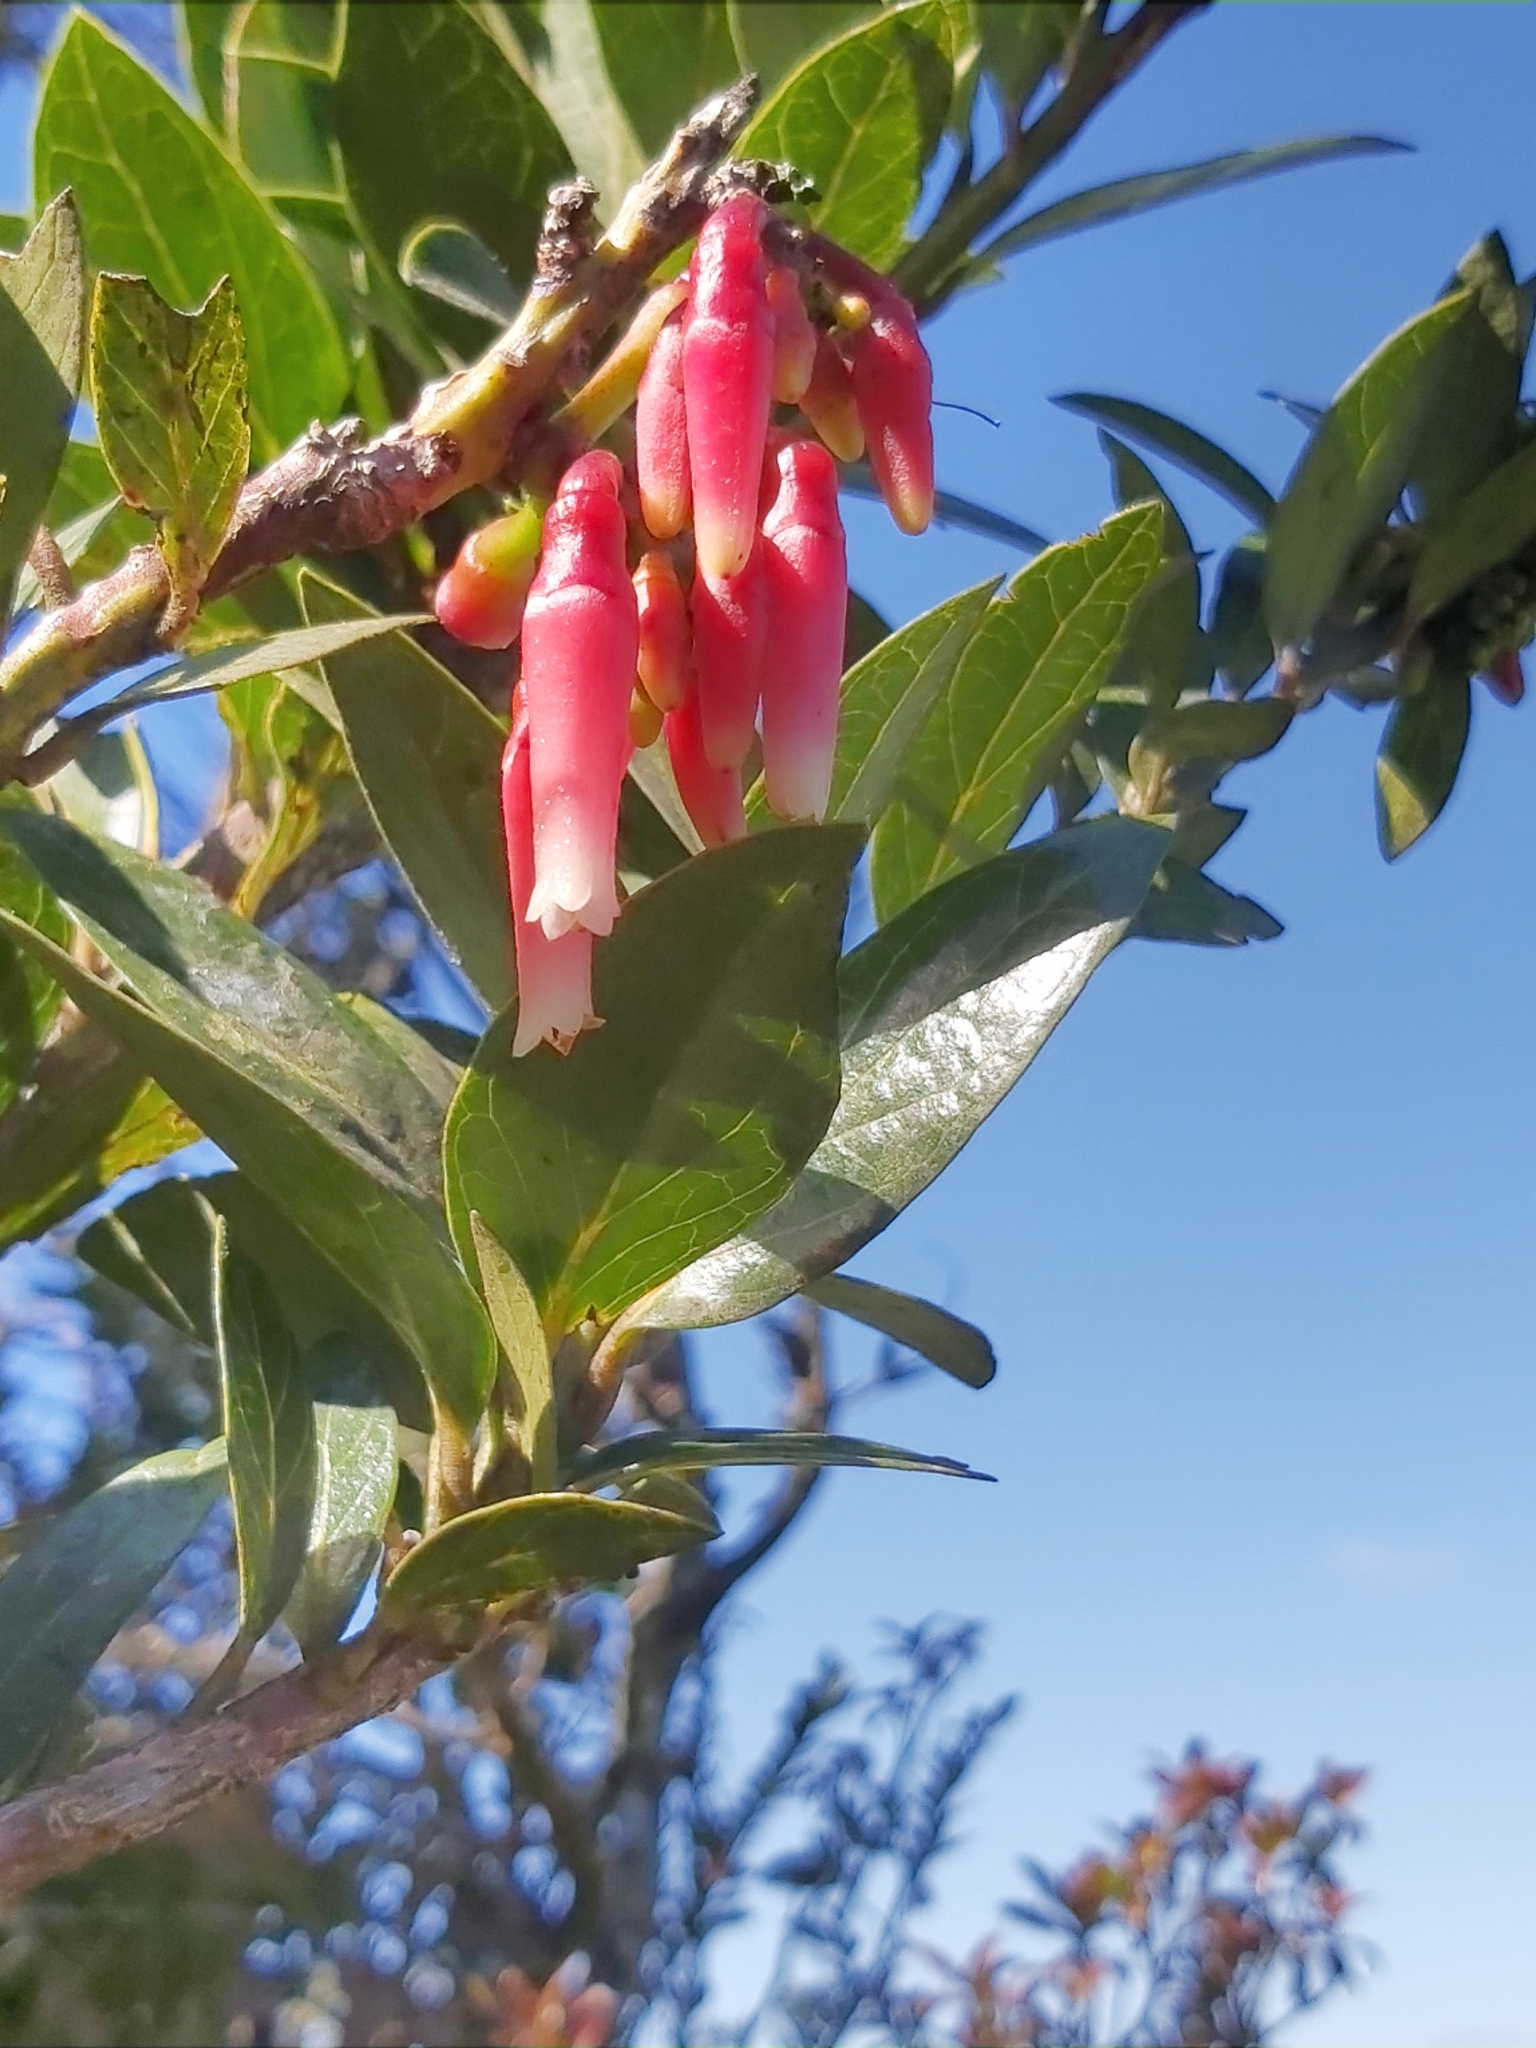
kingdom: Plantae
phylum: Tracheophyta
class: Magnoliopsida
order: Ericales
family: Ericaceae
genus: Macleania
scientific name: Macleania rupestris
